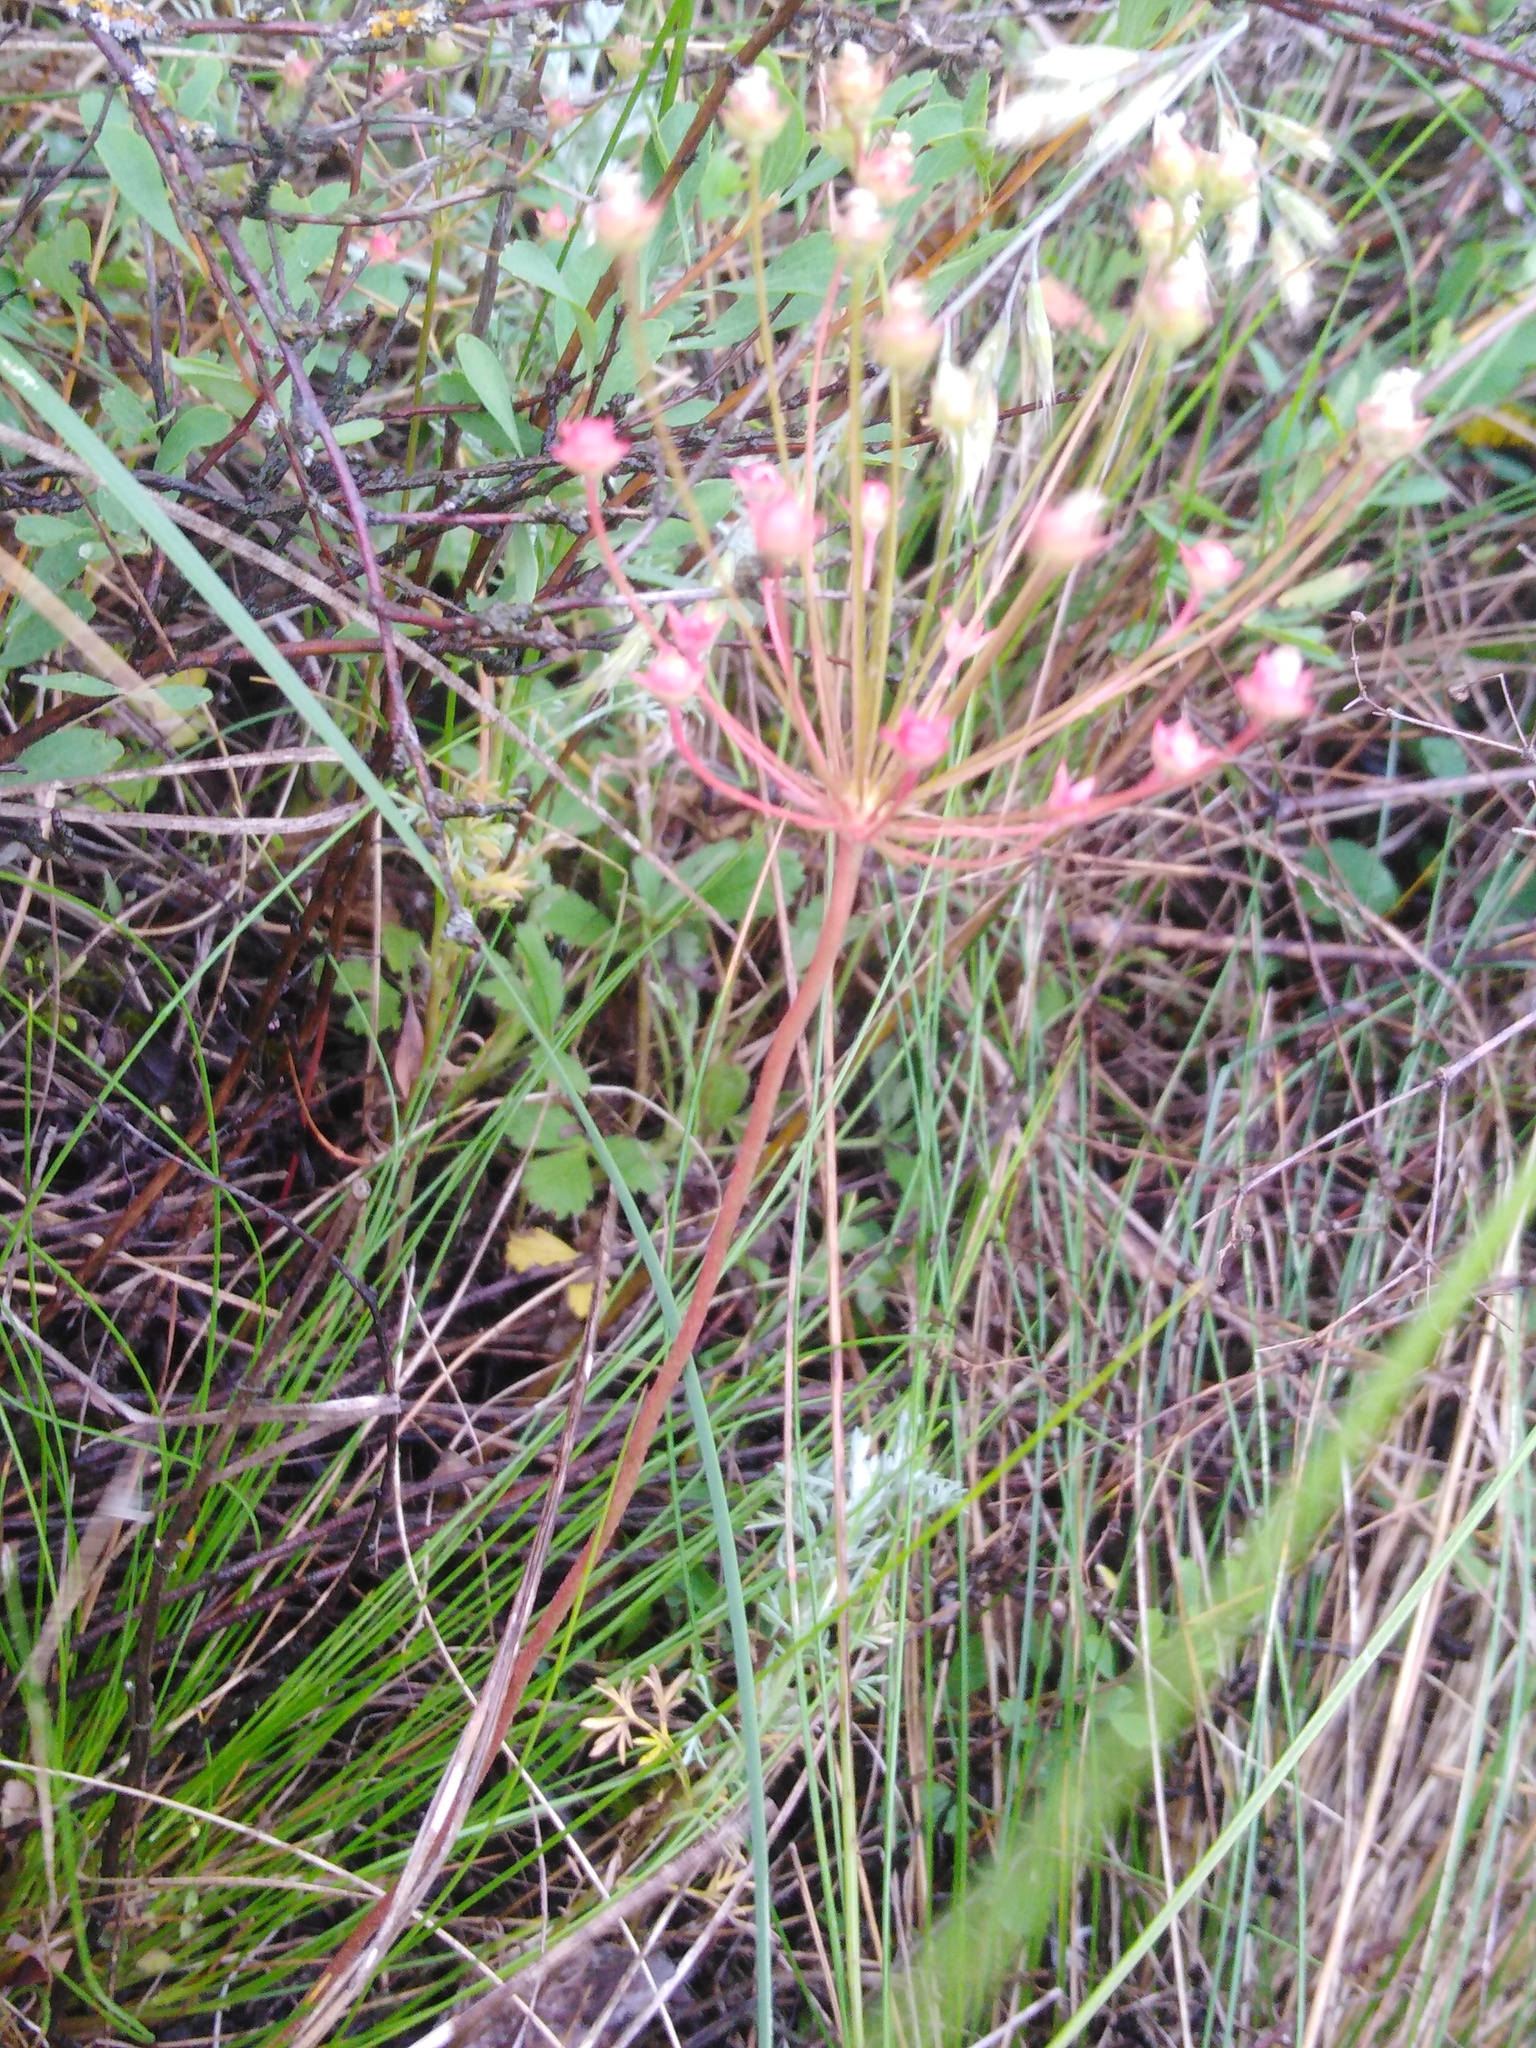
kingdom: Plantae
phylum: Tracheophyta
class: Magnoliopsida
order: Ericales
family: Primulaceae
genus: Androsace
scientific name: Androsace septentrionalis
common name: Hairy northern fairy-candelabra
